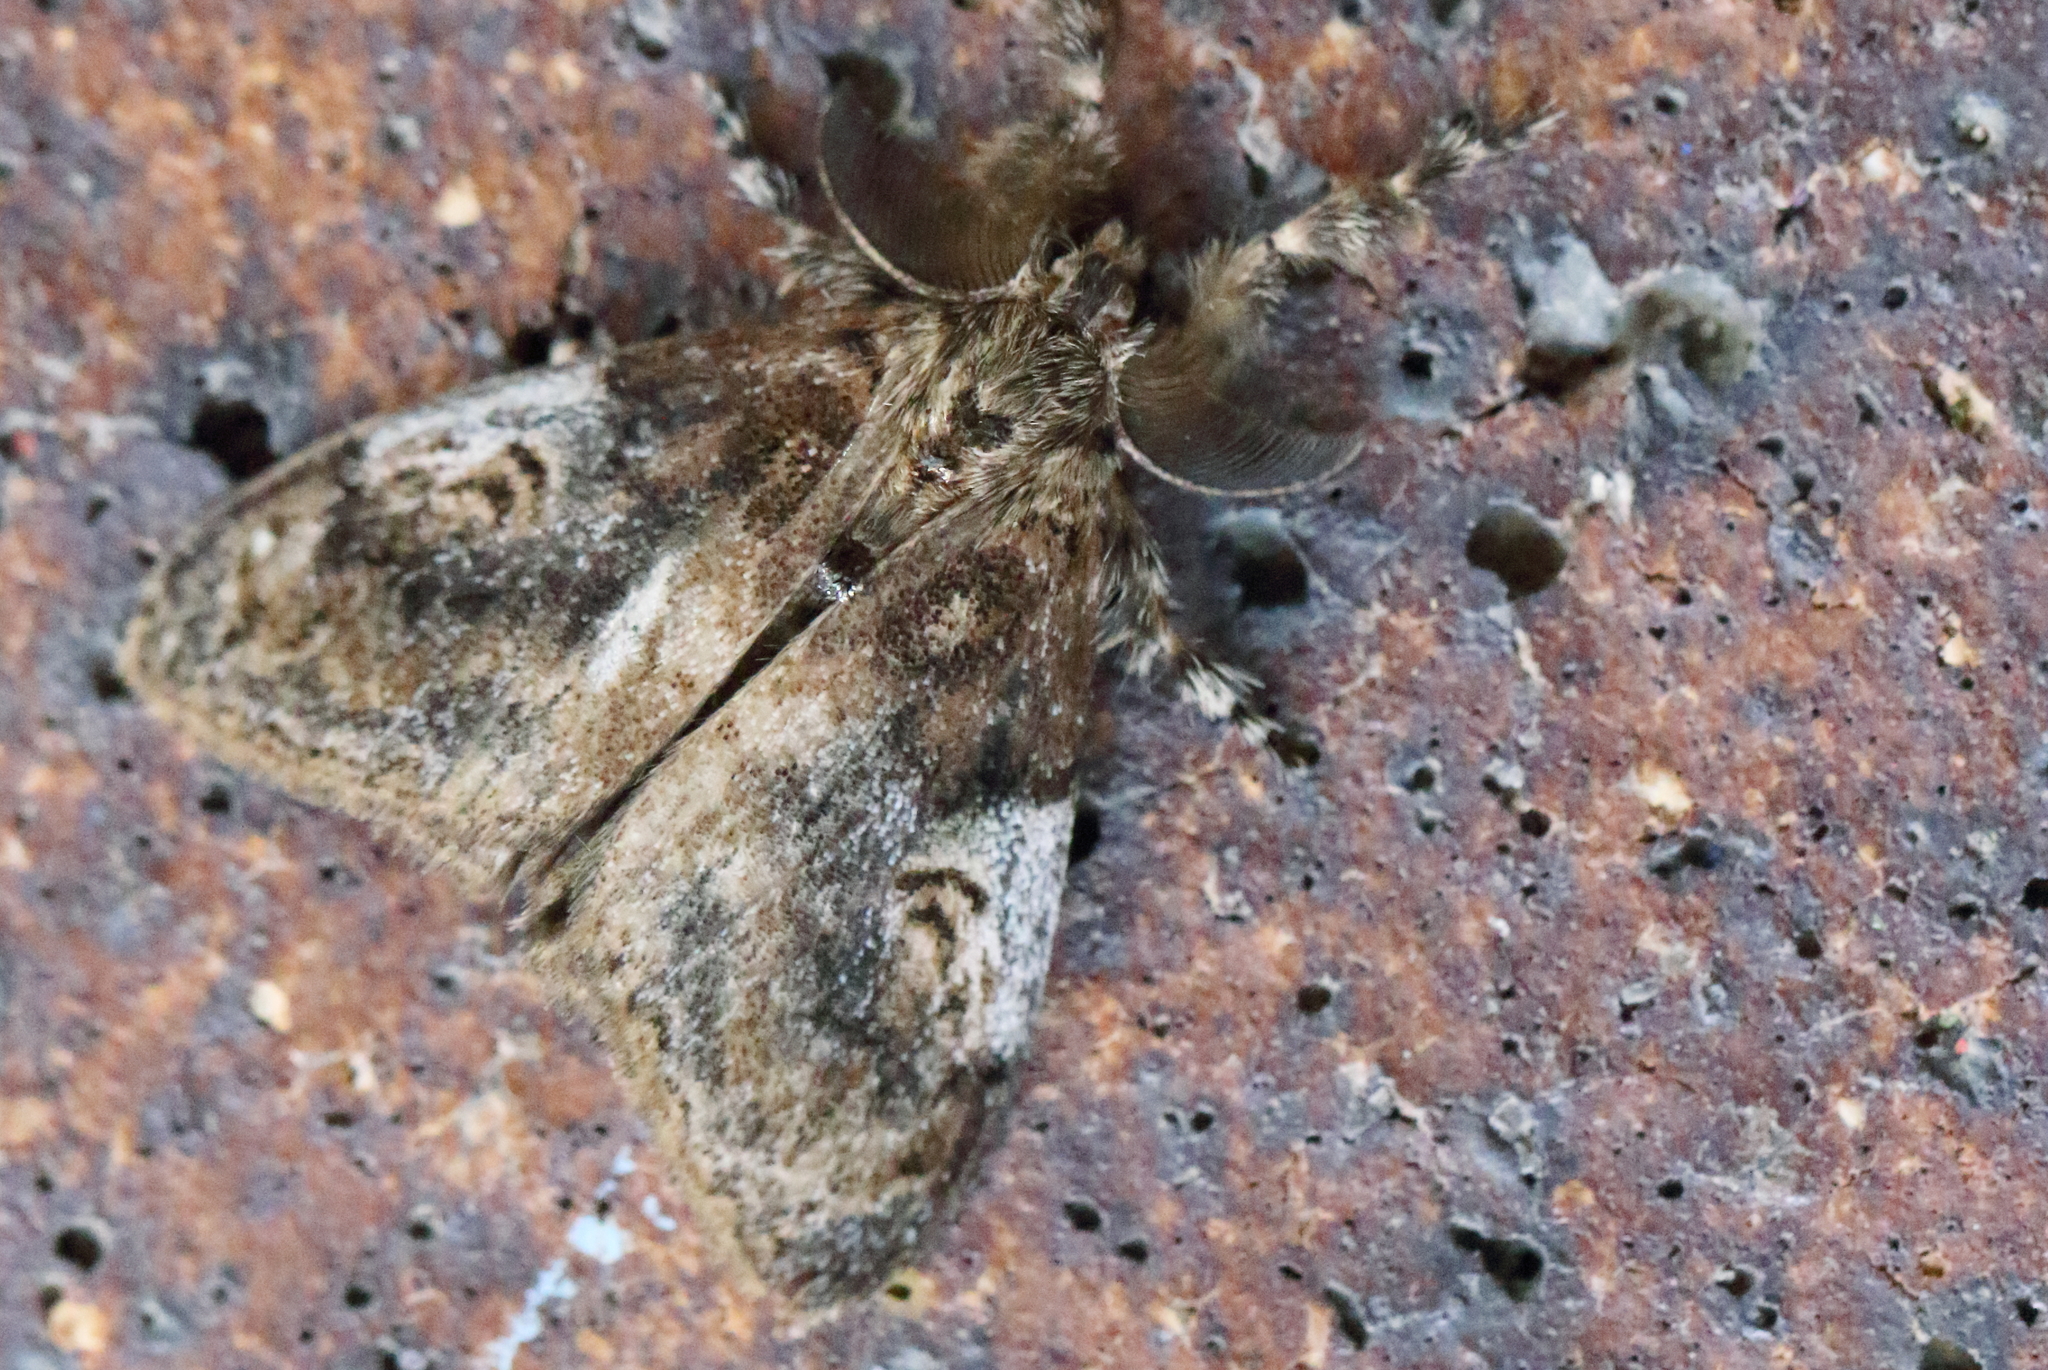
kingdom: Animalia
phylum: Arthropoda
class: Insecta
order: Lepidoptera
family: Erebidae
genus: Orgyia
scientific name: Orgyia australis
